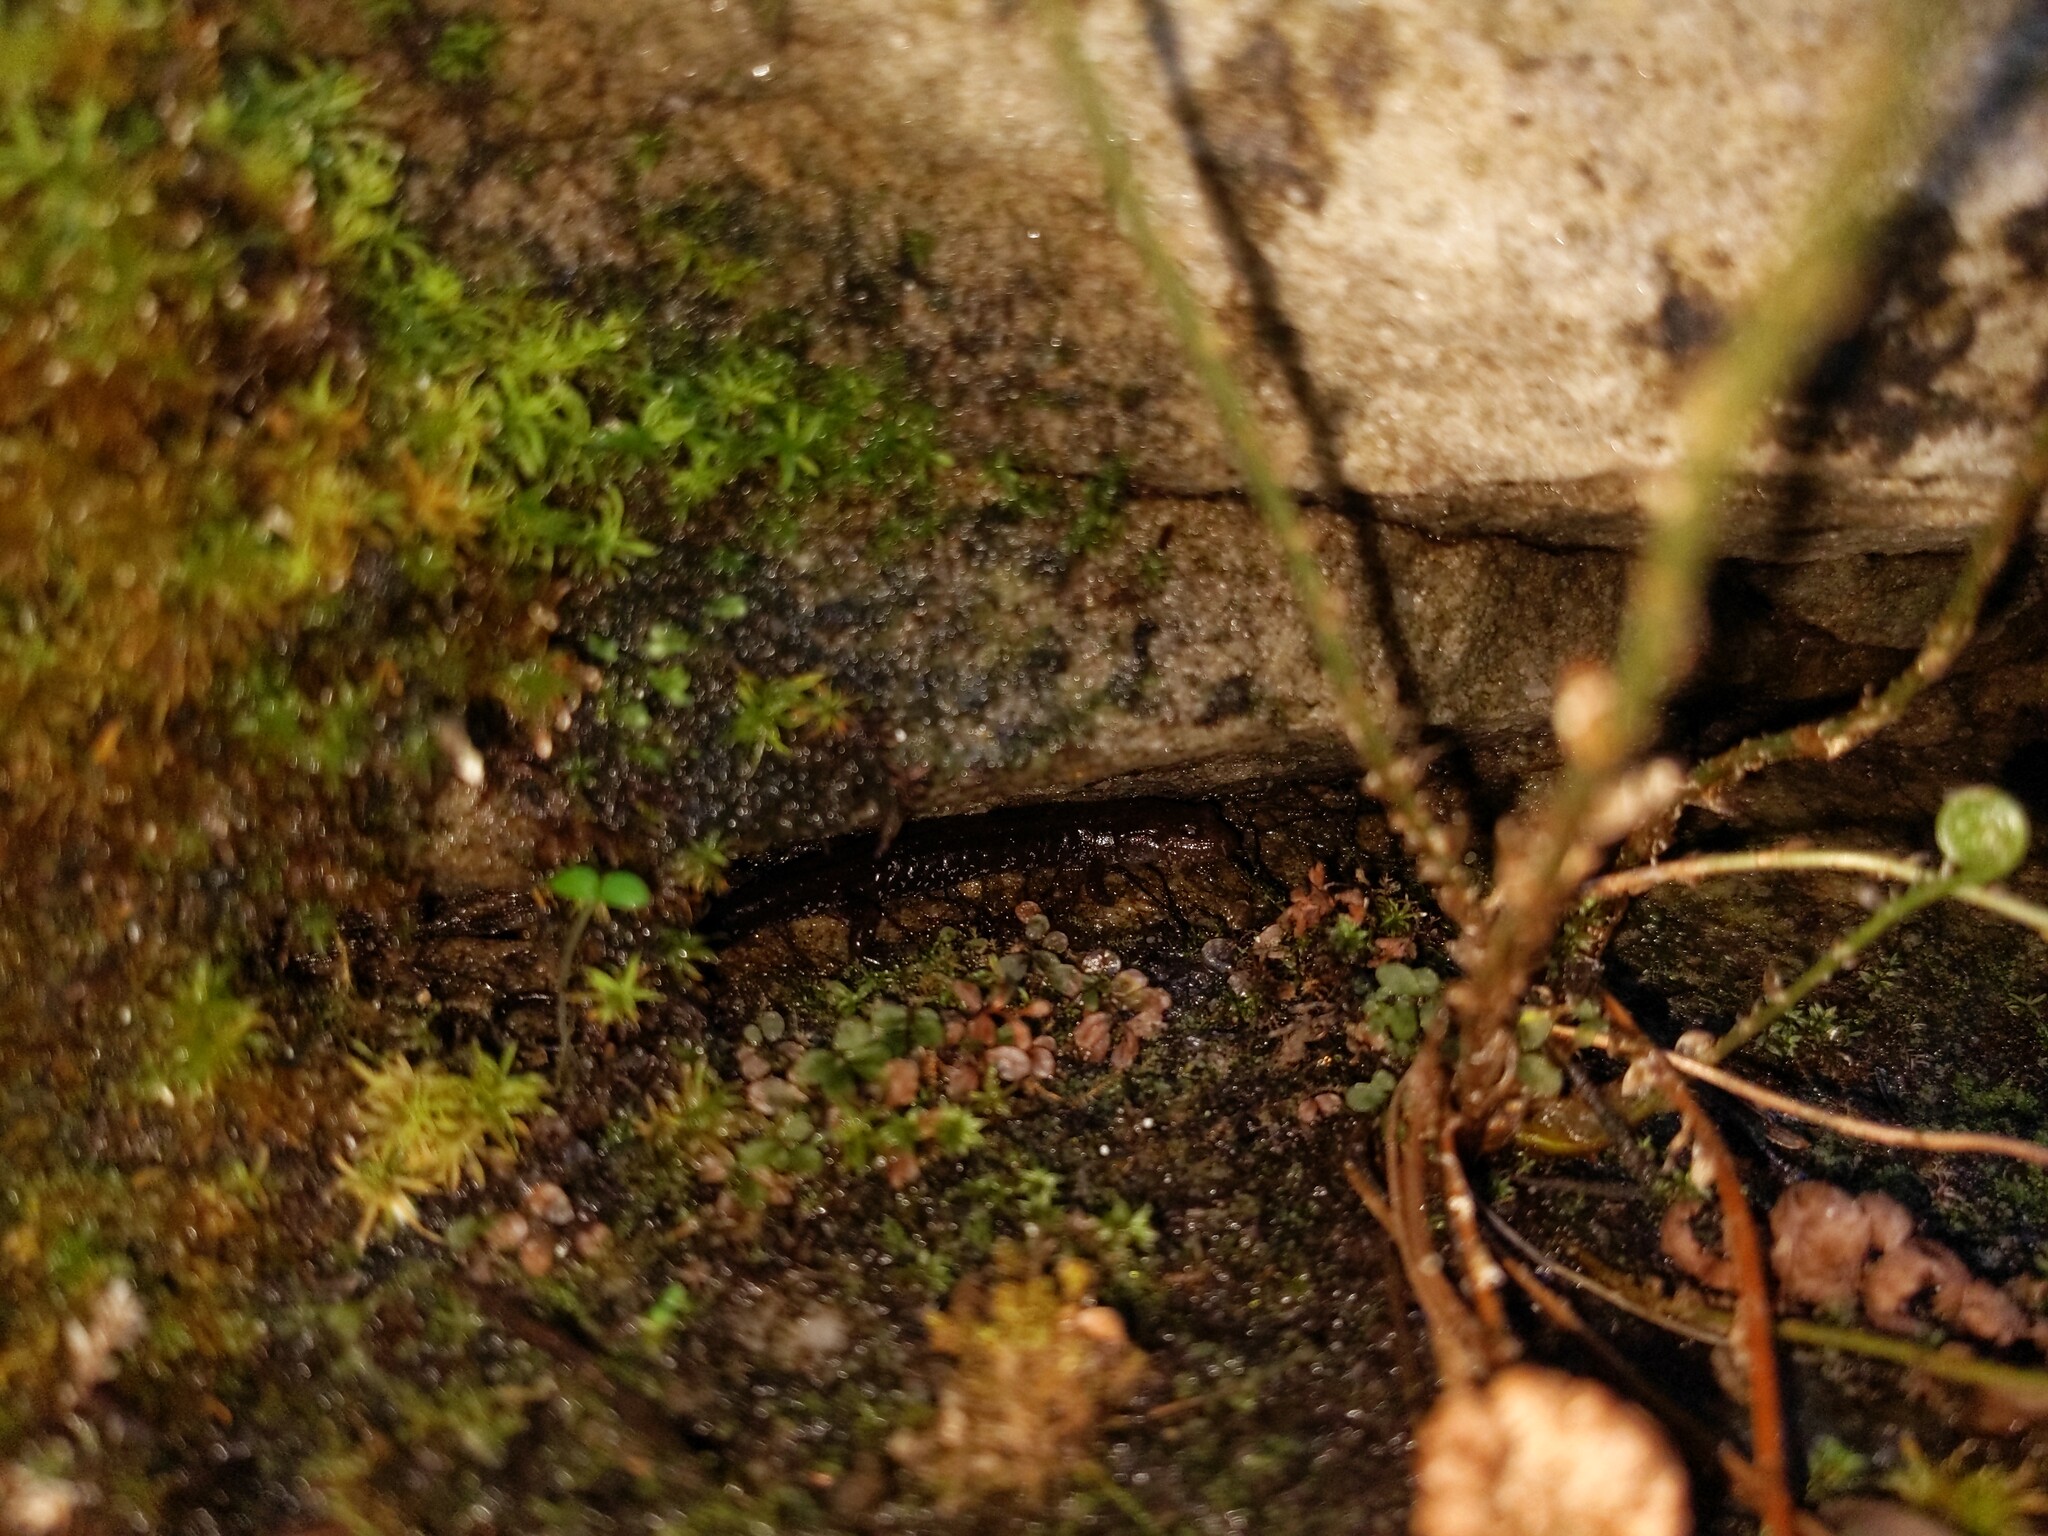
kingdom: Animalia
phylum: Chordata
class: Amphibia
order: Caudata
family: Plethodontidae
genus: Desmognathus
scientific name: Desmognathus ochrophaeus
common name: Allegheny mountain dusky salamander
